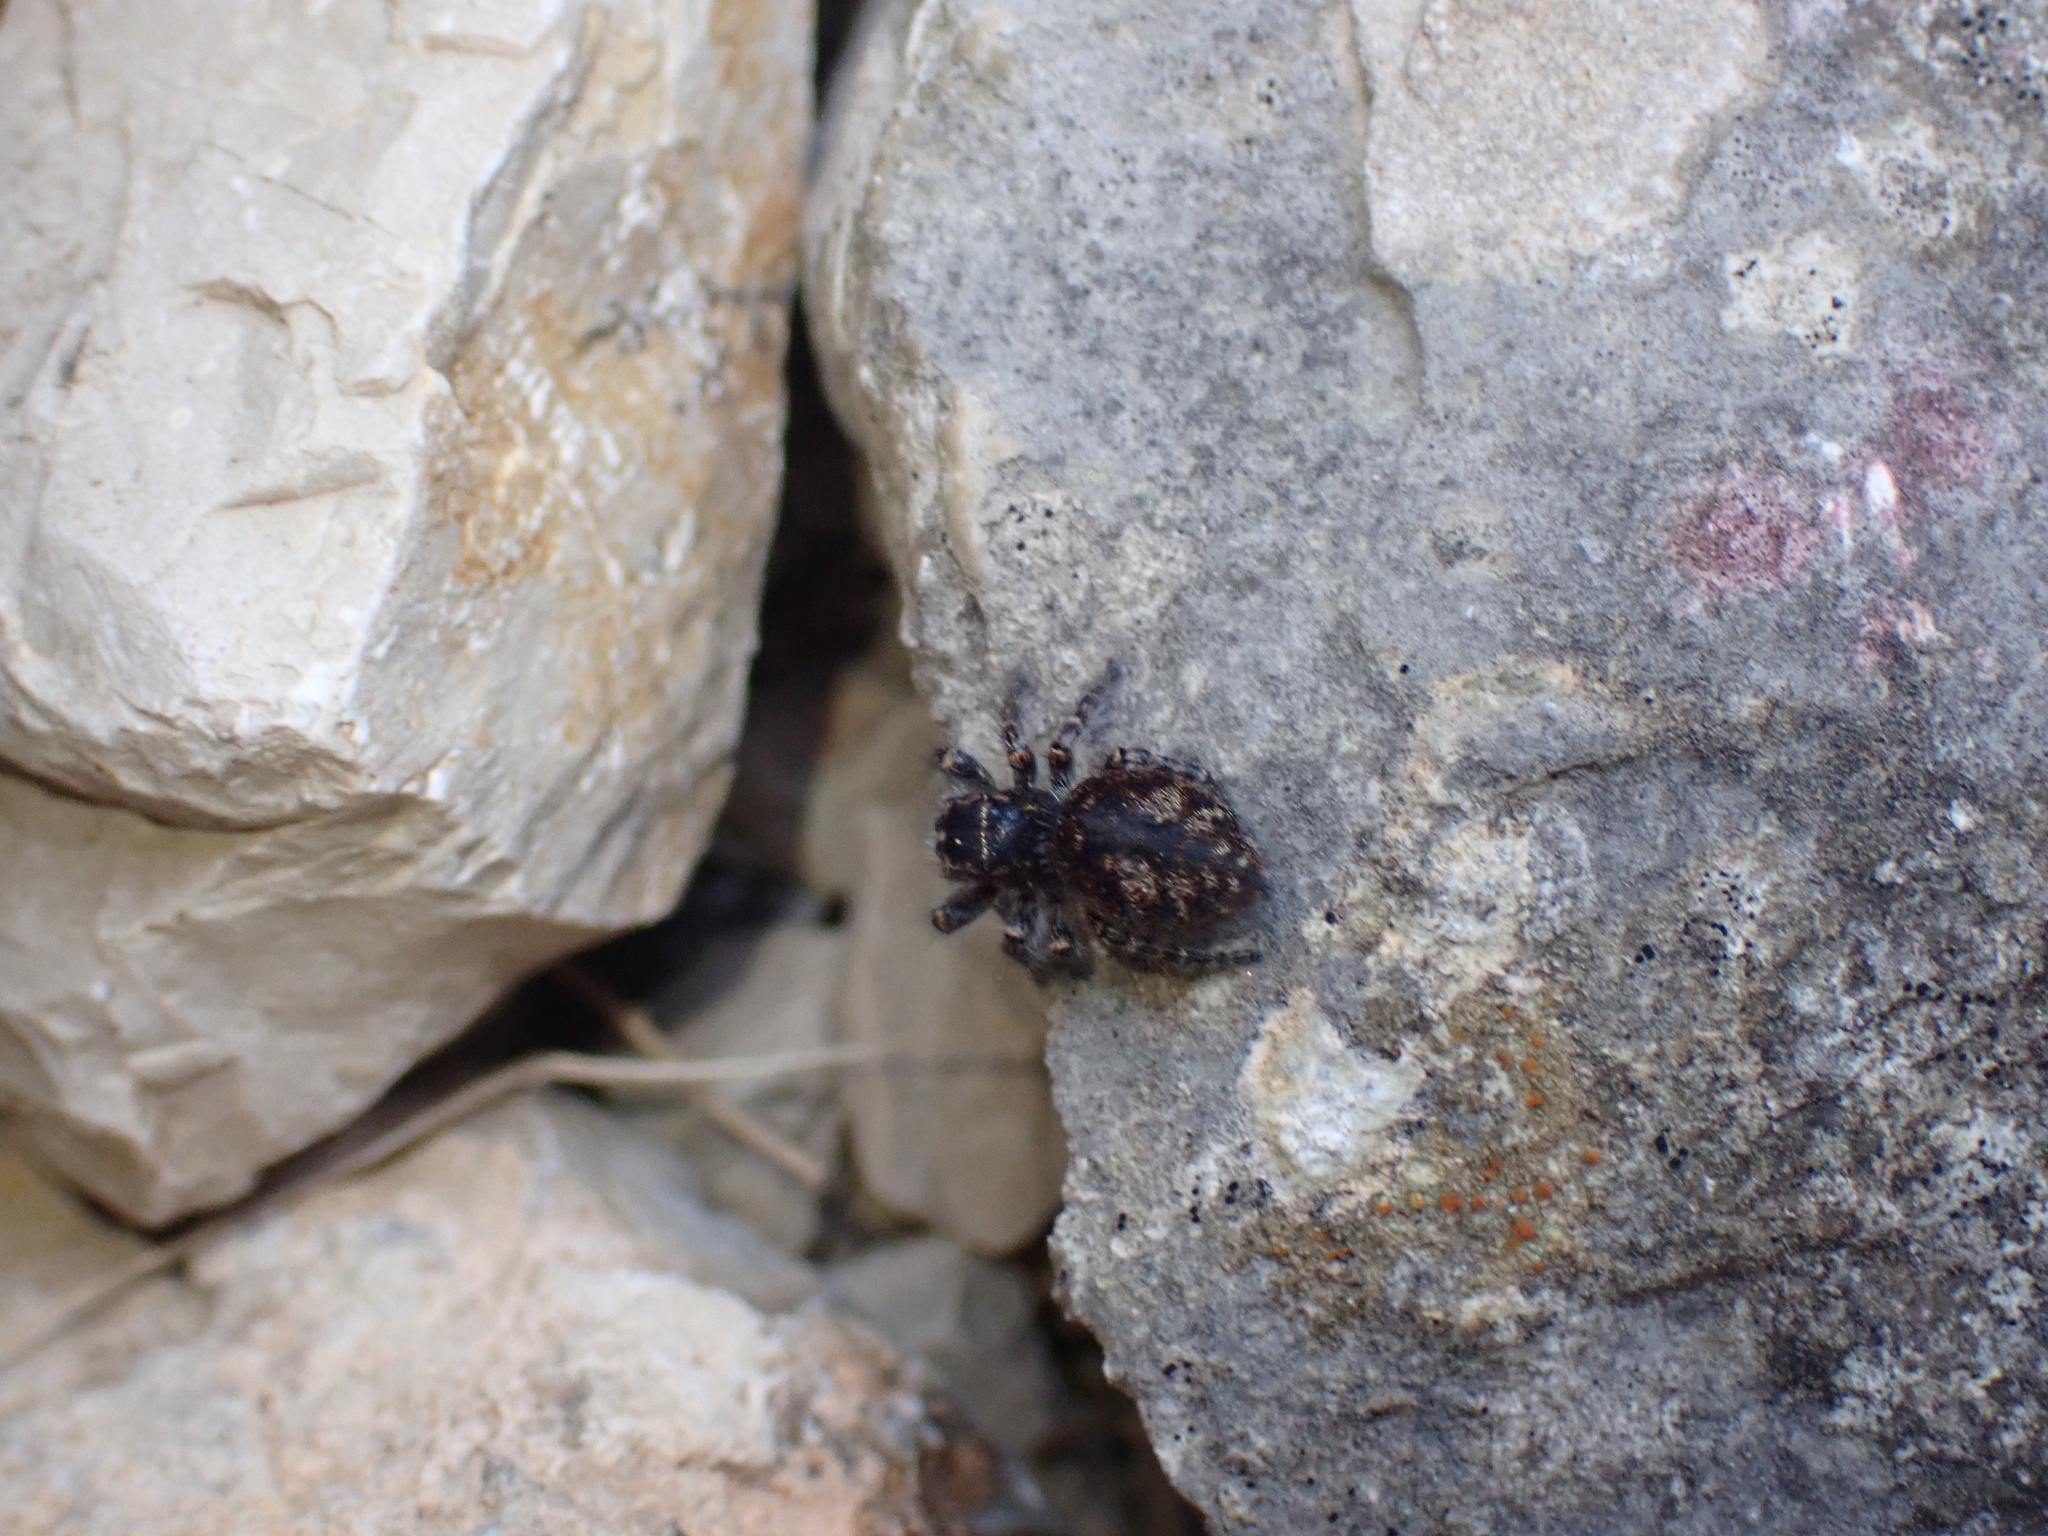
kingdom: Animalia
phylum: Arthropoda
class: Arachnida
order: Araneae
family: Salticidae
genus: Philaeus
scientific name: Philaeus chrysops
